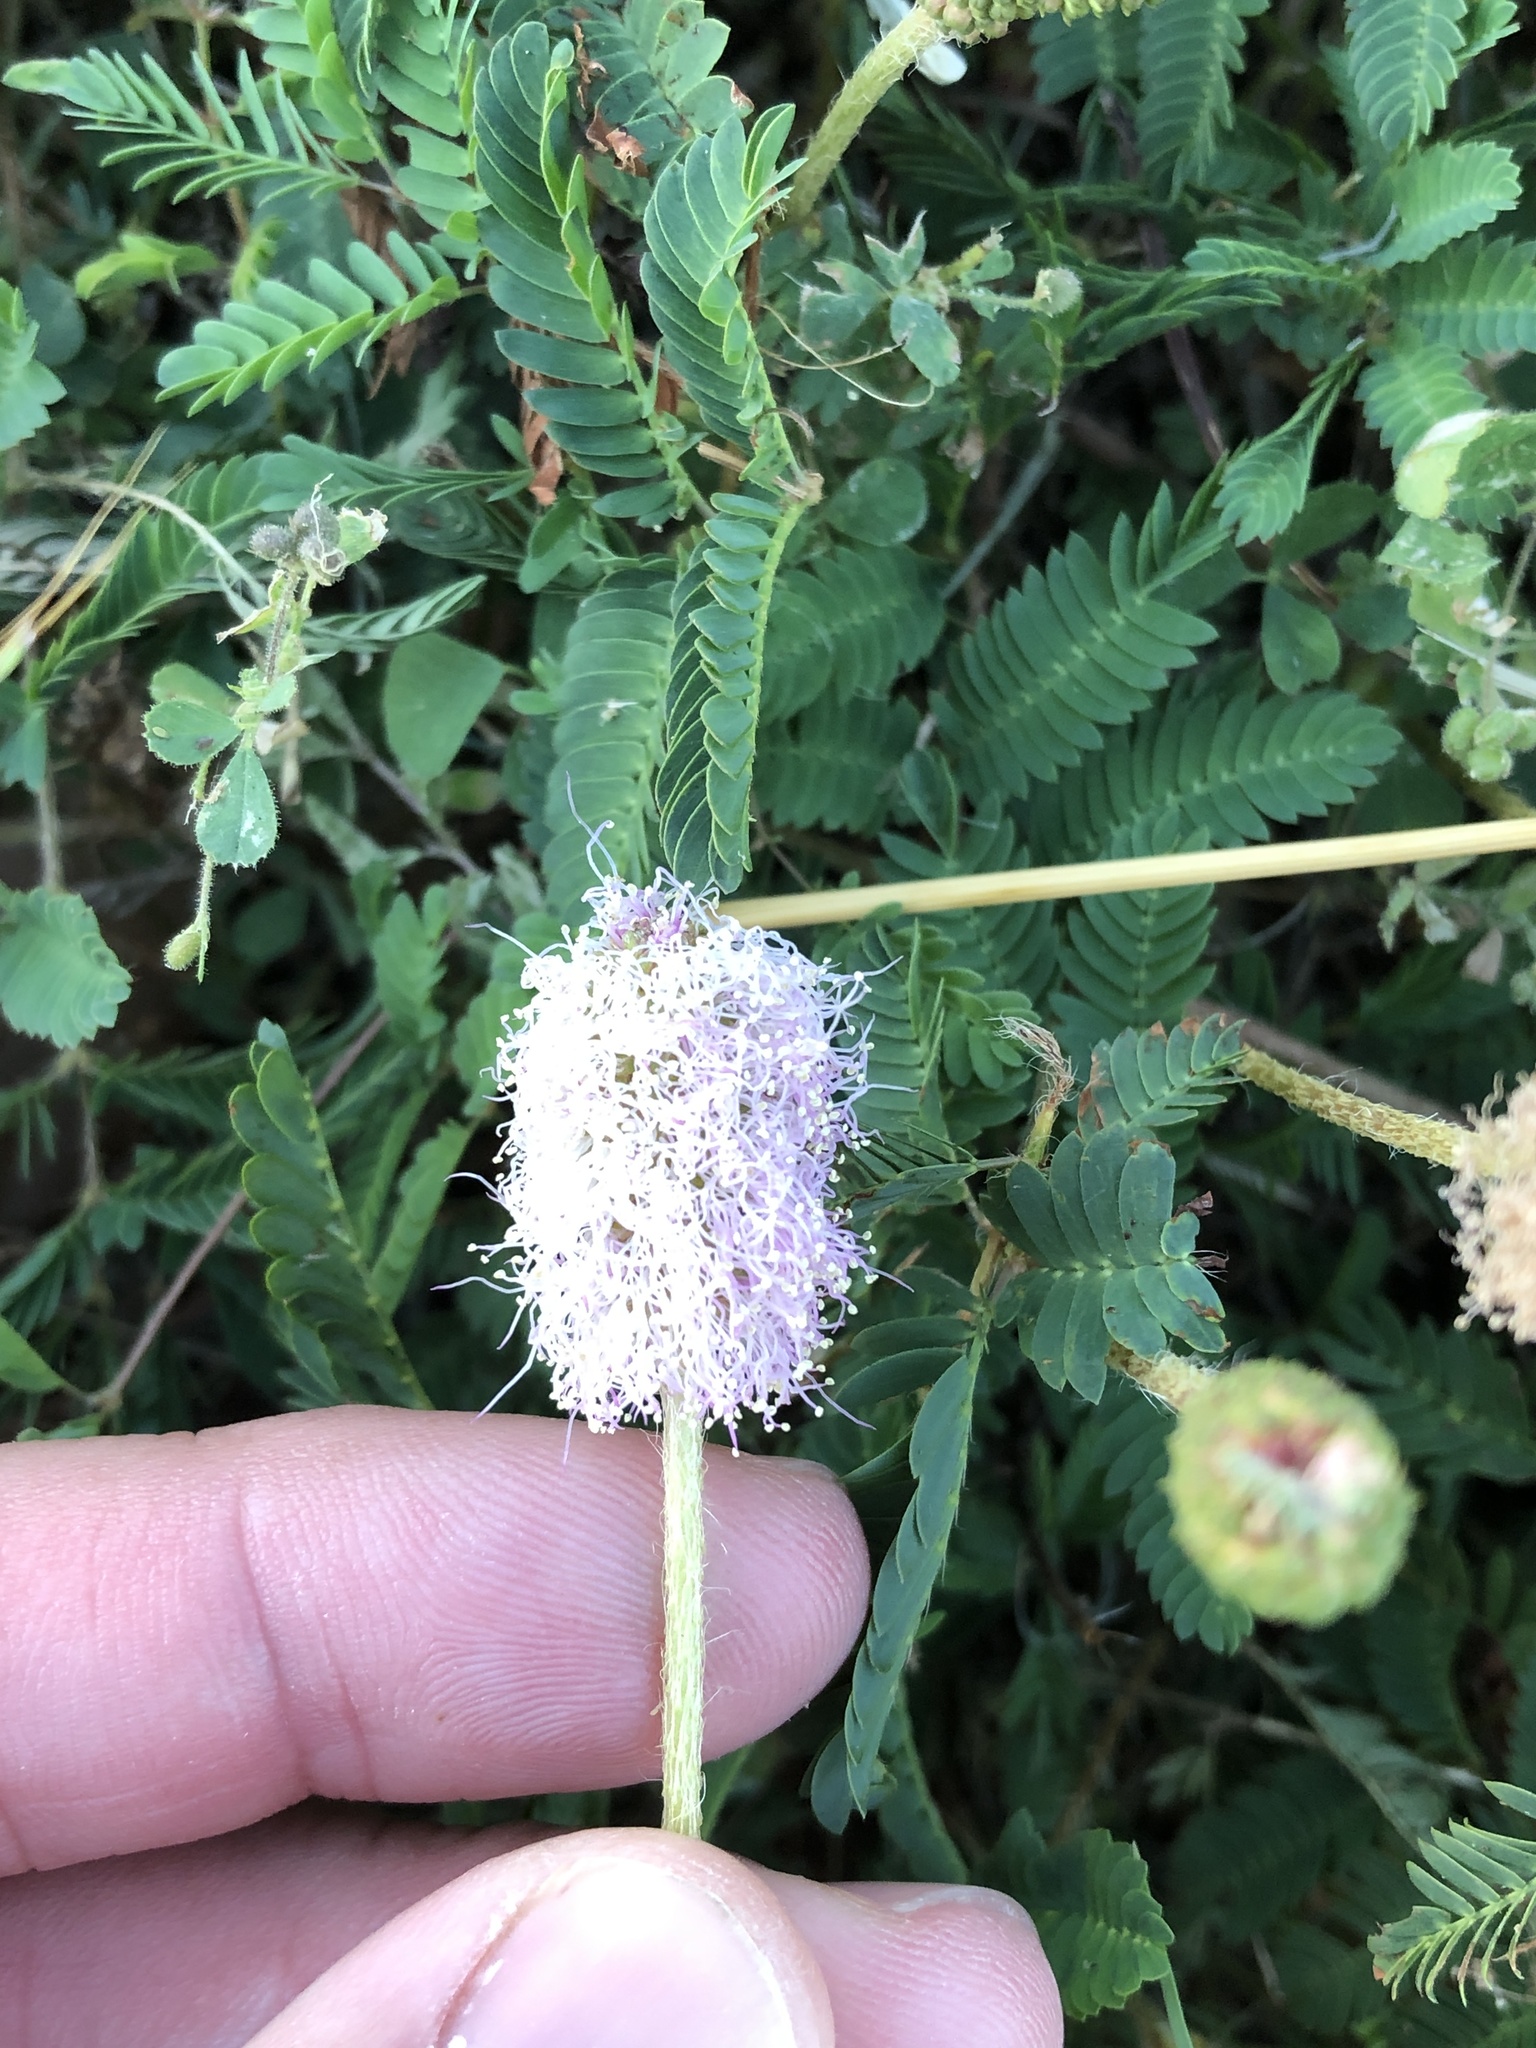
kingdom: Plantae
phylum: Tracheophyta
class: Magnoliopsida
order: Fabales
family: Fabaceae
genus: Mimosa
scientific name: Mimosa strigillosa
